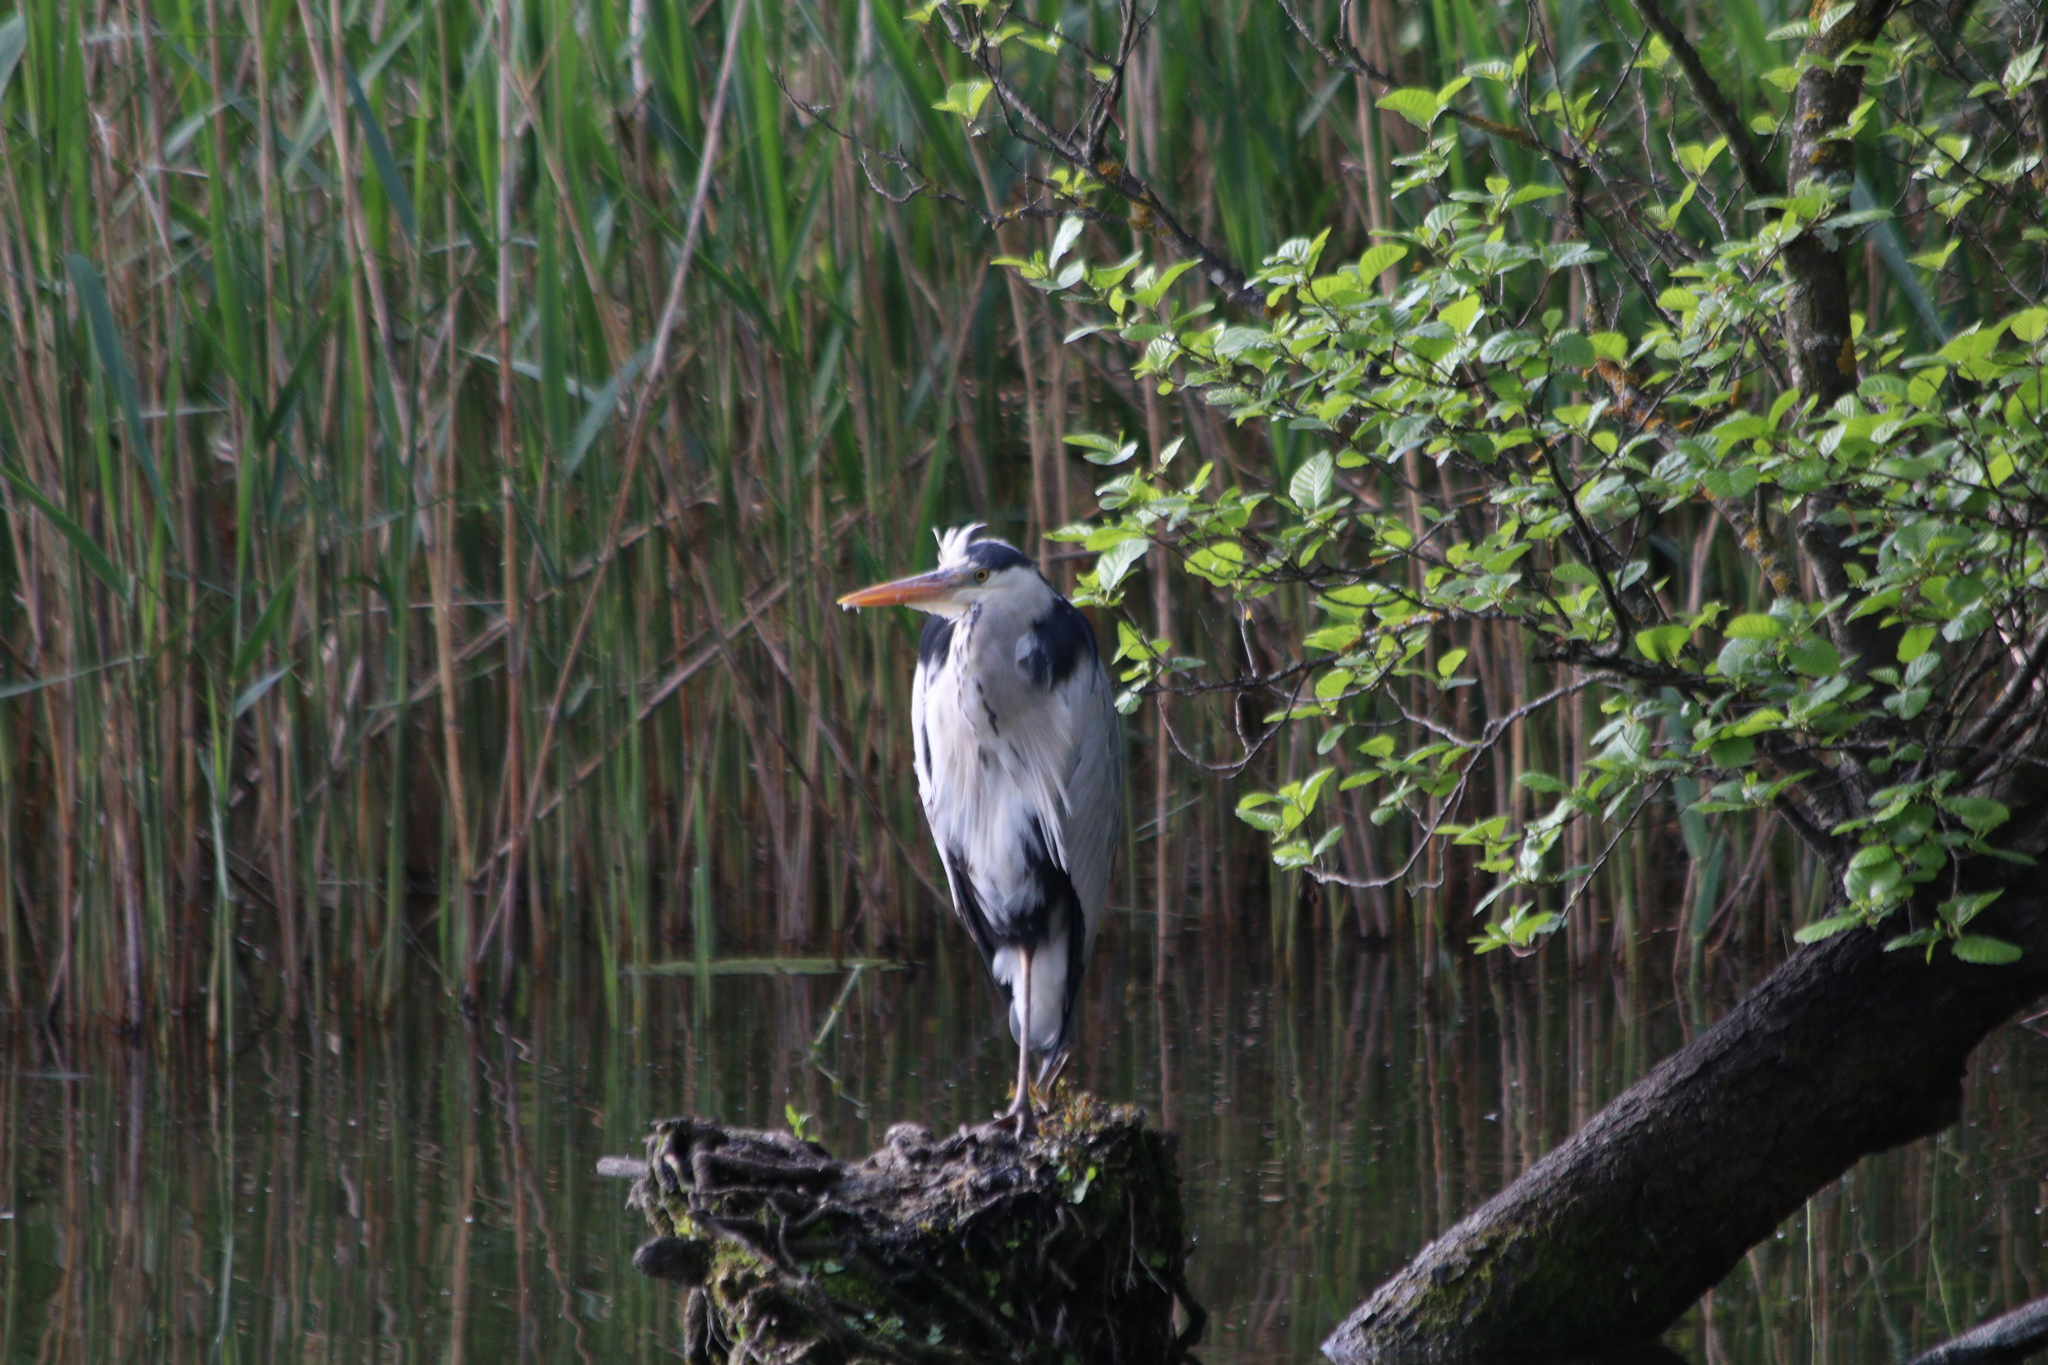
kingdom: Animalia
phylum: Chordata
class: Aves
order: Pelecaniformes
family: Ardeidae
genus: Ardea
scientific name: Ardea cinerea
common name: Grey heron
